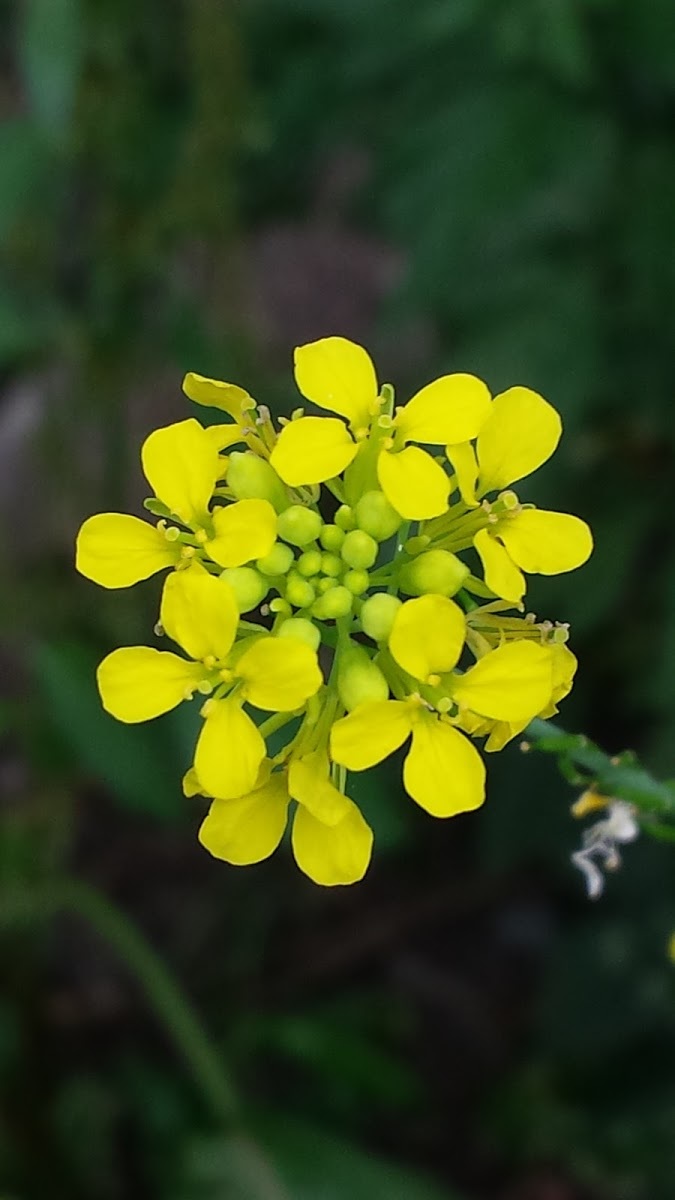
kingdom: Plantae
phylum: Tracheophyta
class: Magnoliopsida
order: Brassicales
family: Brassicaceae
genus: Brassica
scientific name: Brassica nigra
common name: Black mustard
